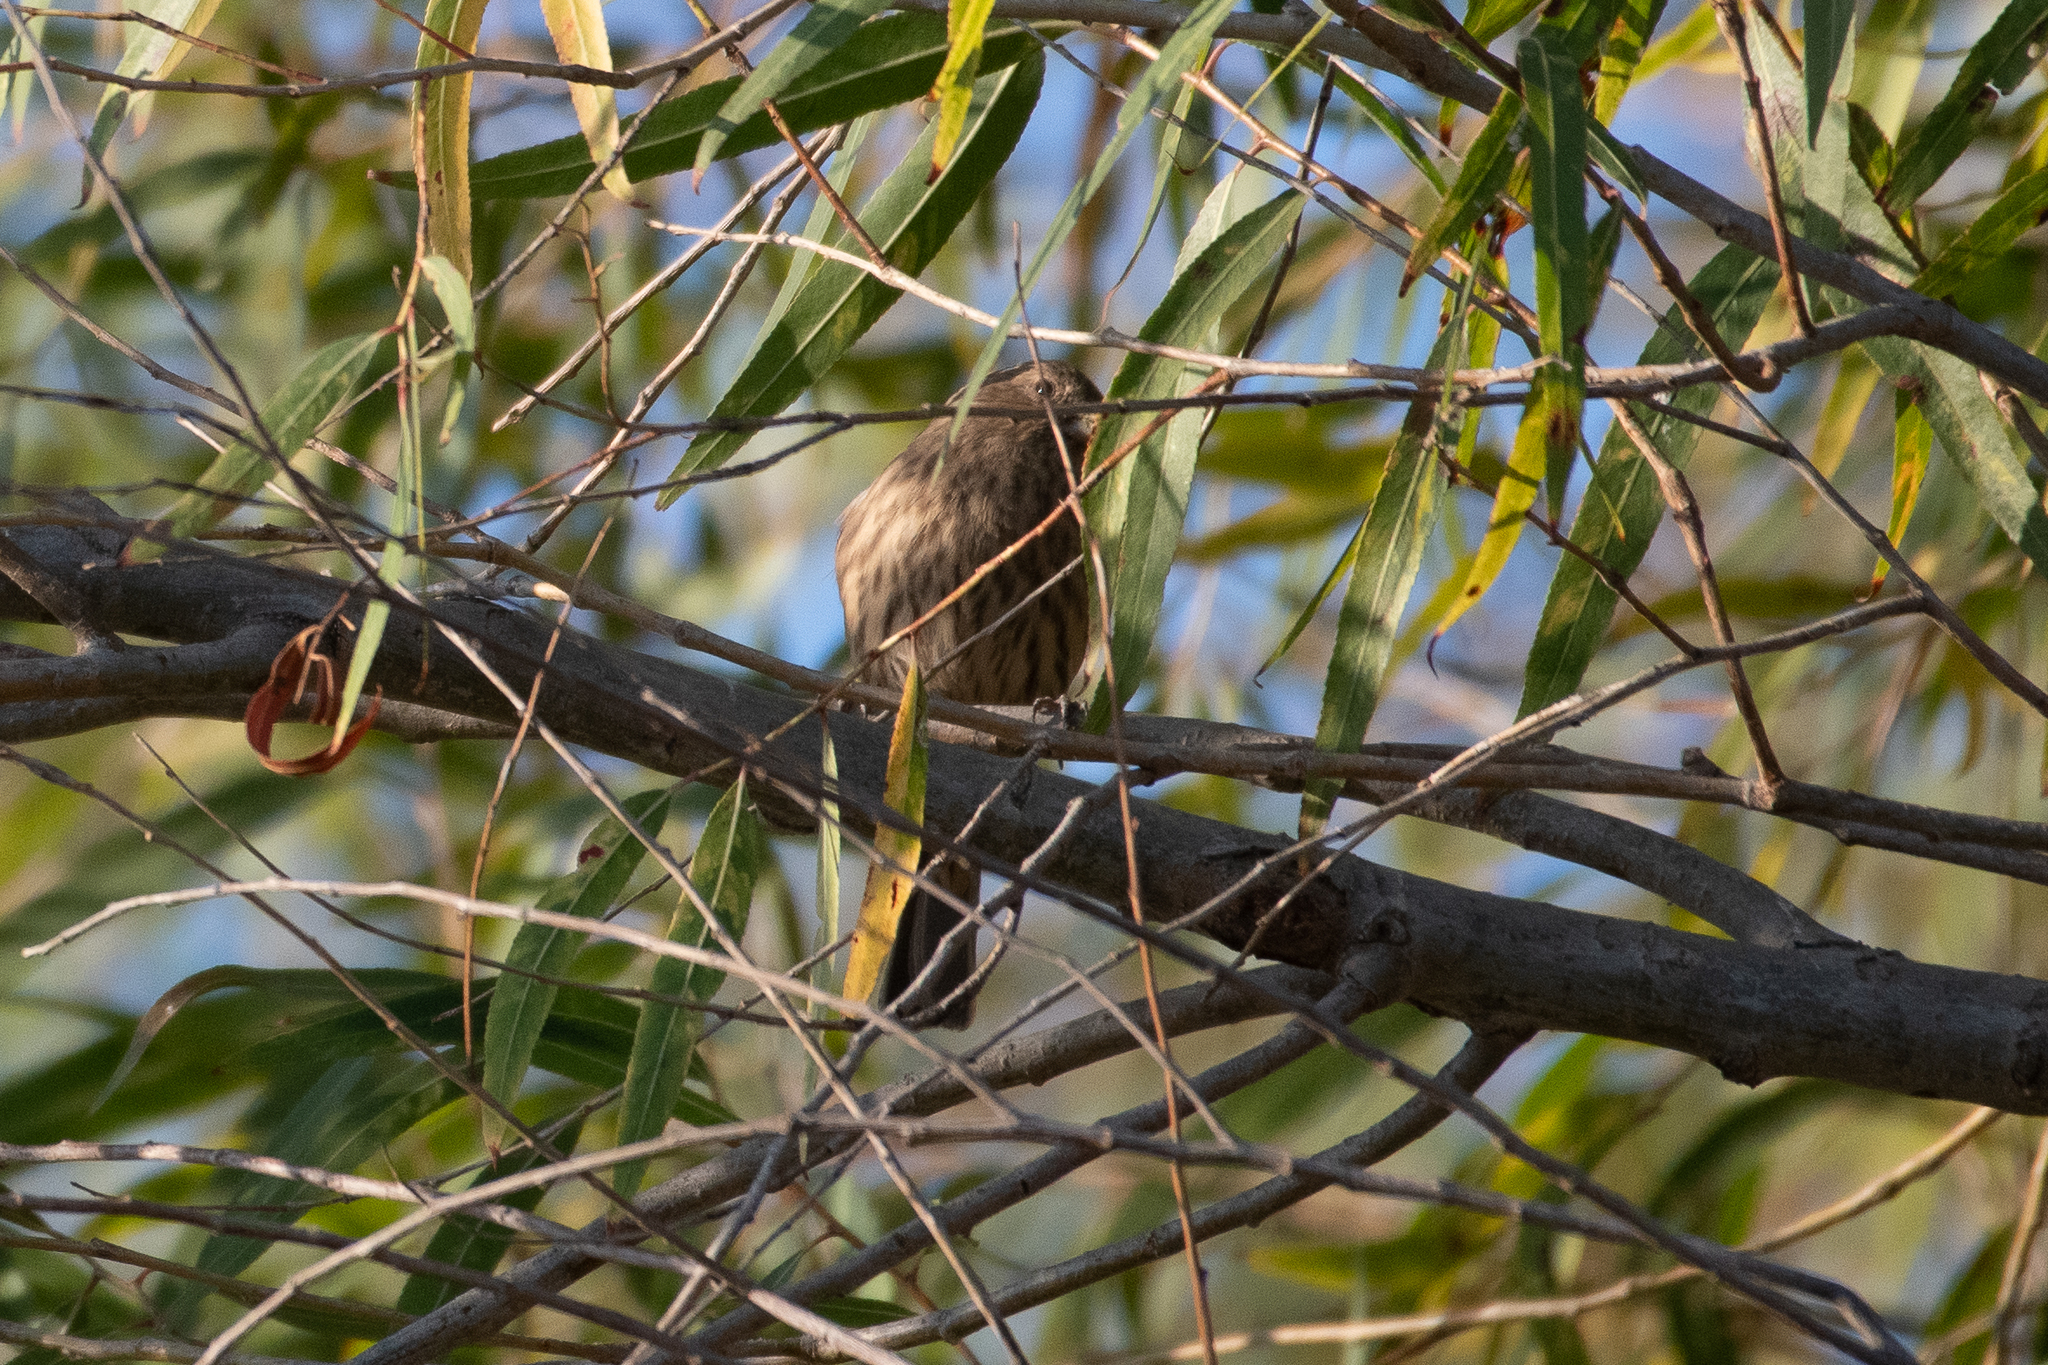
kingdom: Animalia
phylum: Chordata
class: Aves
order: Passeriformes
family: Fringillidae
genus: Haemorhous
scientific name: Haemorhous mexicanus
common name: House finch
